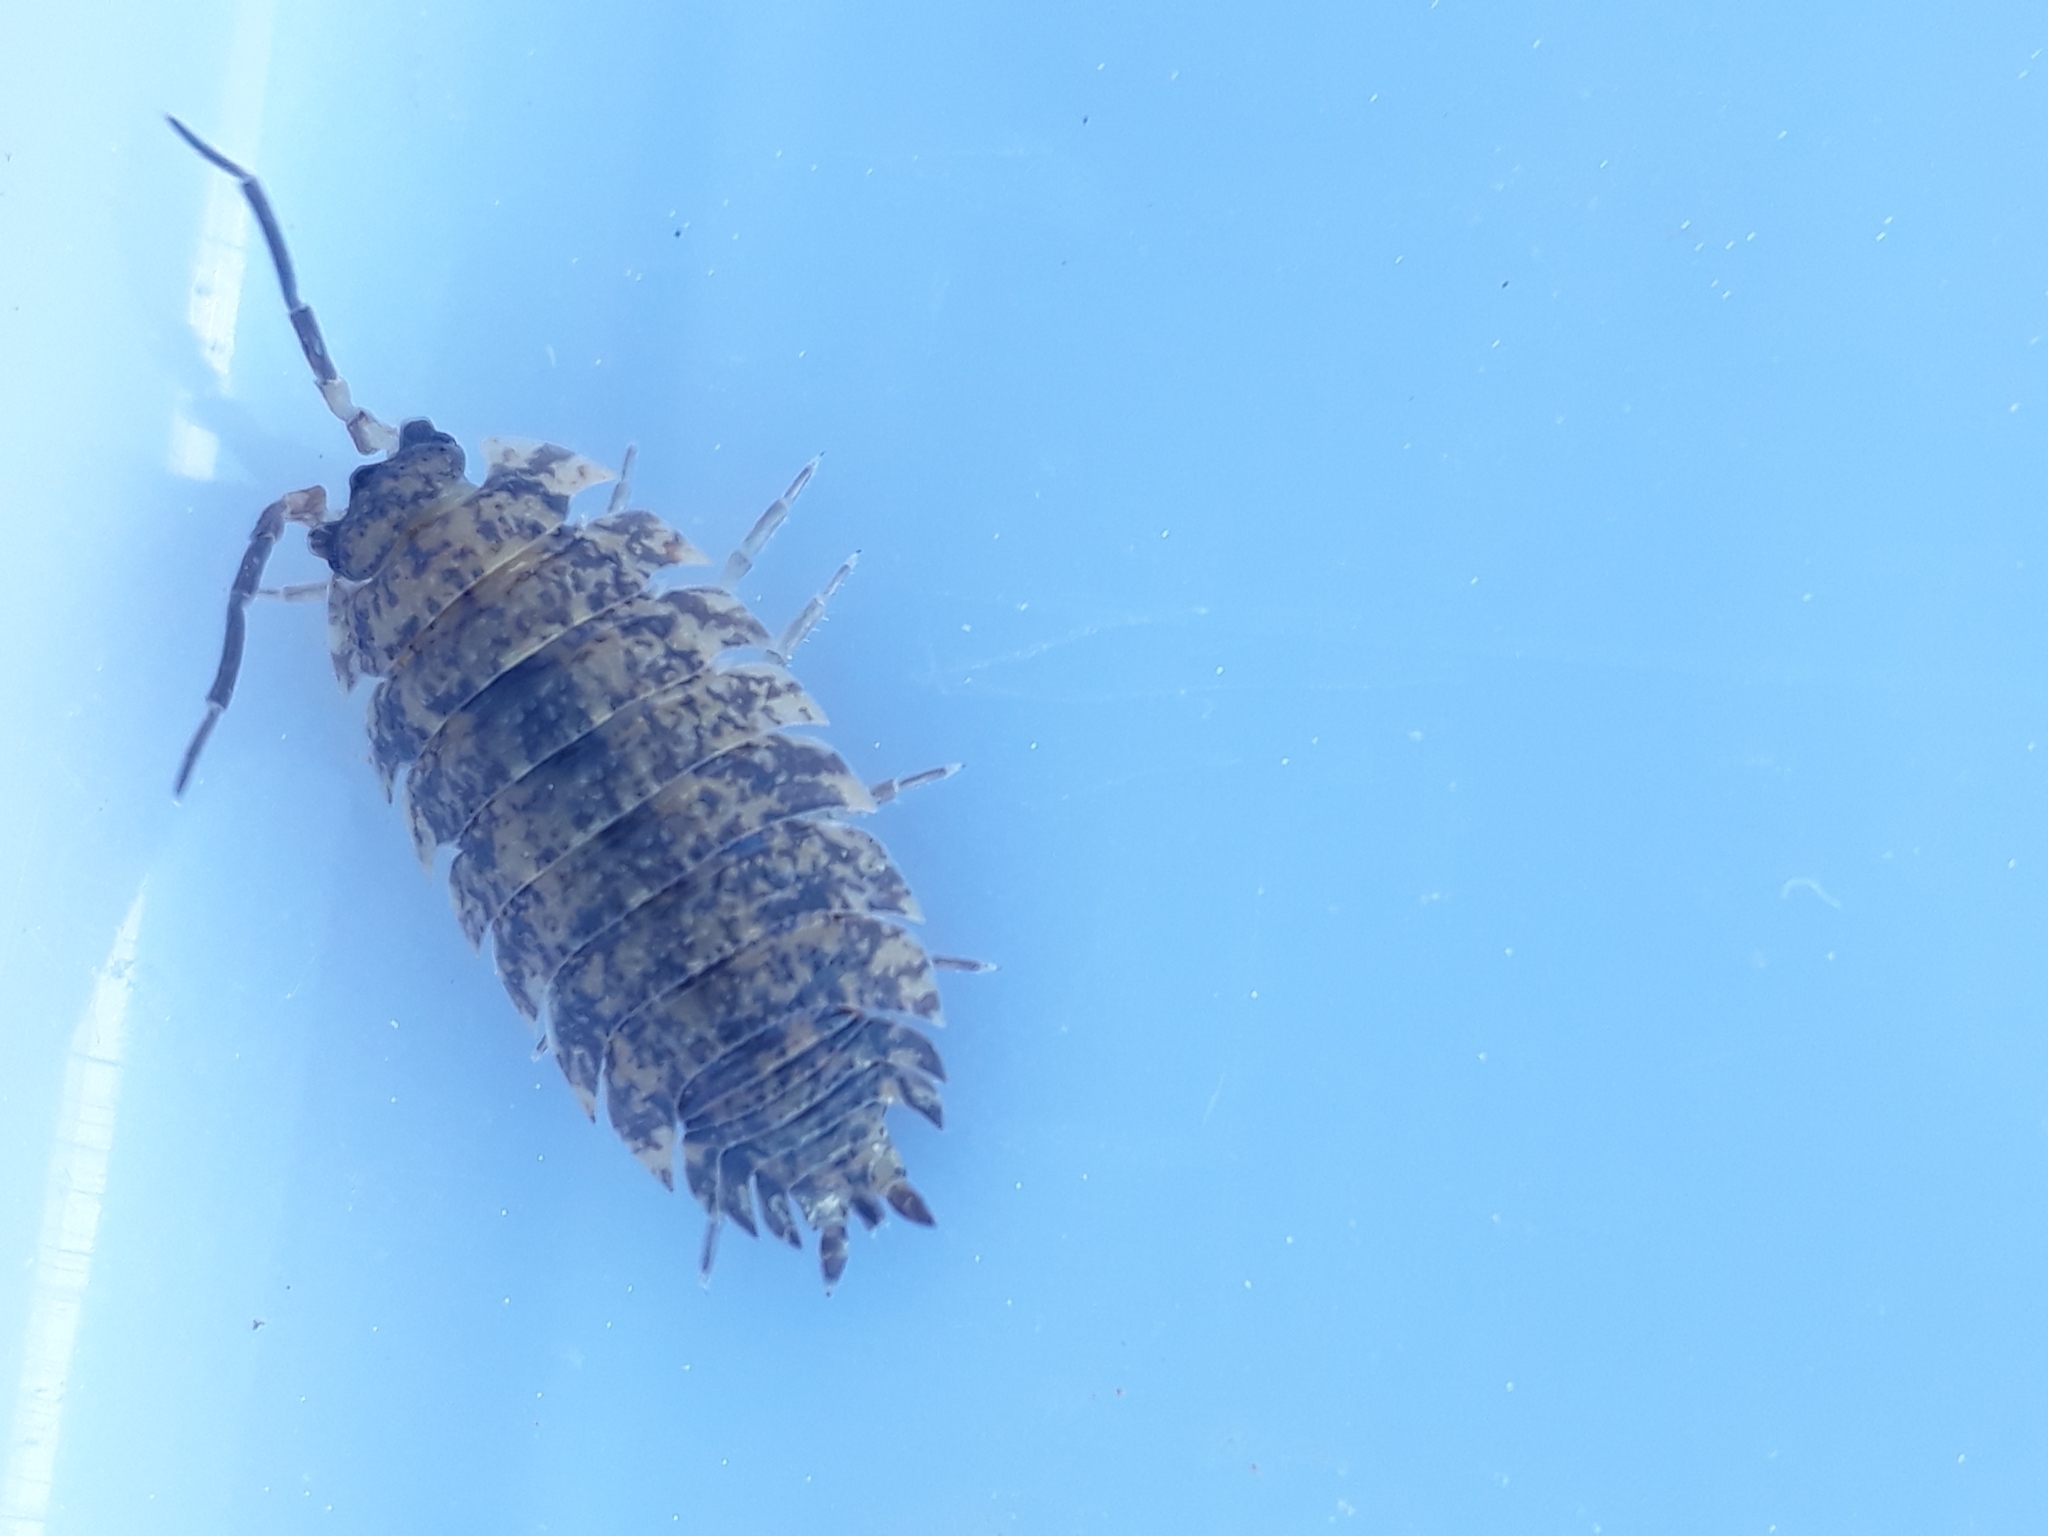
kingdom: Animalia
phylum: Arthropoda
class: Malacostraca
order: Isopoda
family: Porcellionidae
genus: Porcellio
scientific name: Porcellio scaber
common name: Common rough woodlouse
